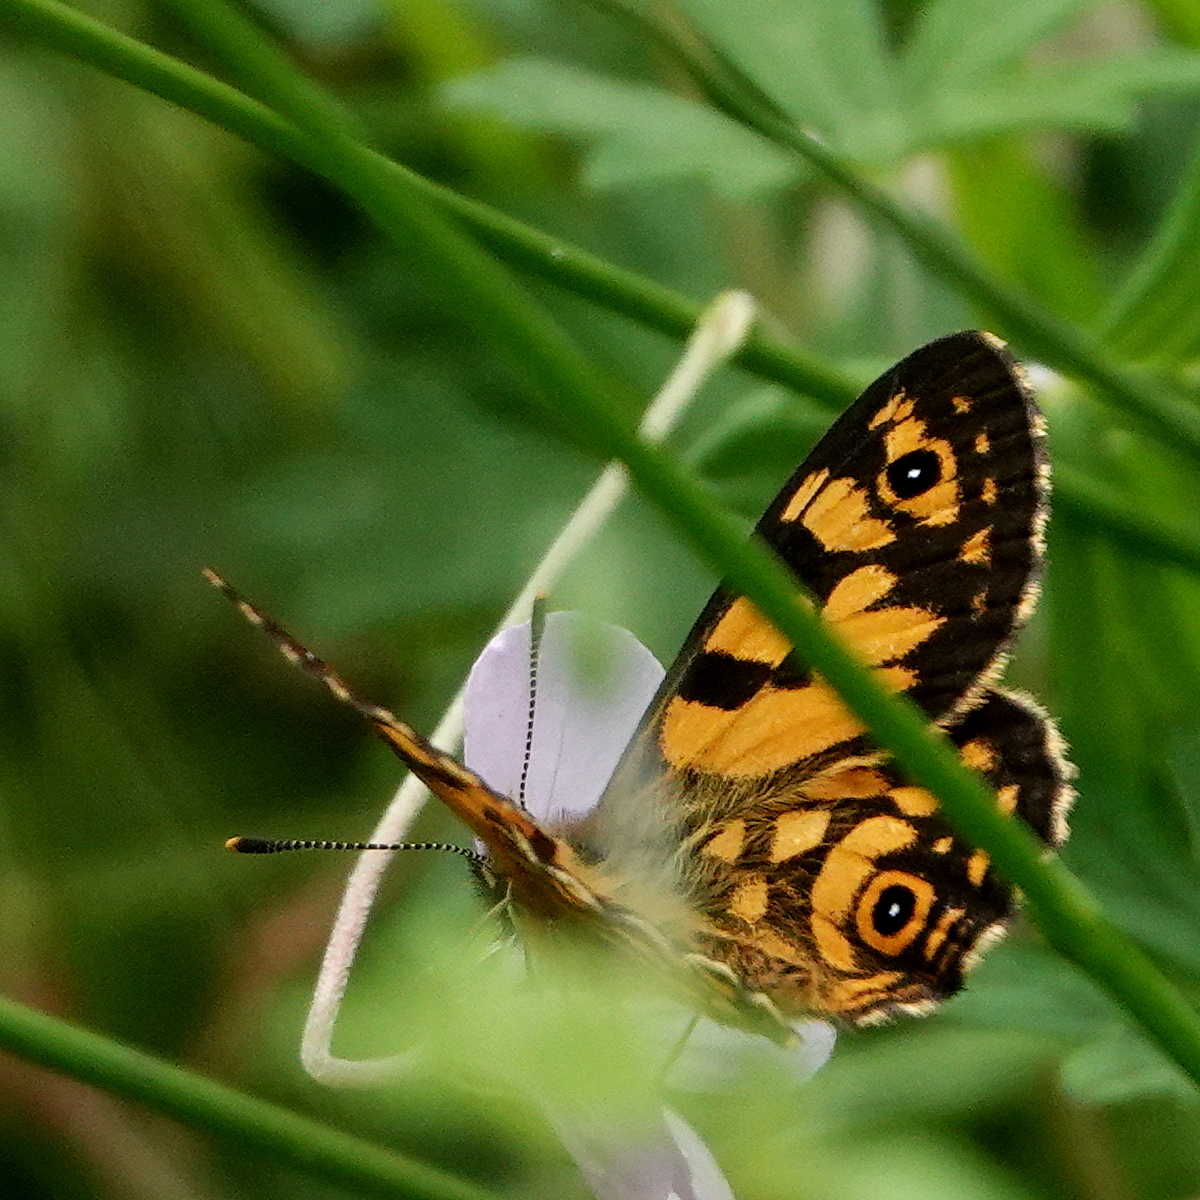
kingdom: Animalia
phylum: Arthropoda
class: Insecta
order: Lepidoptera
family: Nymphalidae
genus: Oreixenica
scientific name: Oreixenica lathoniella
